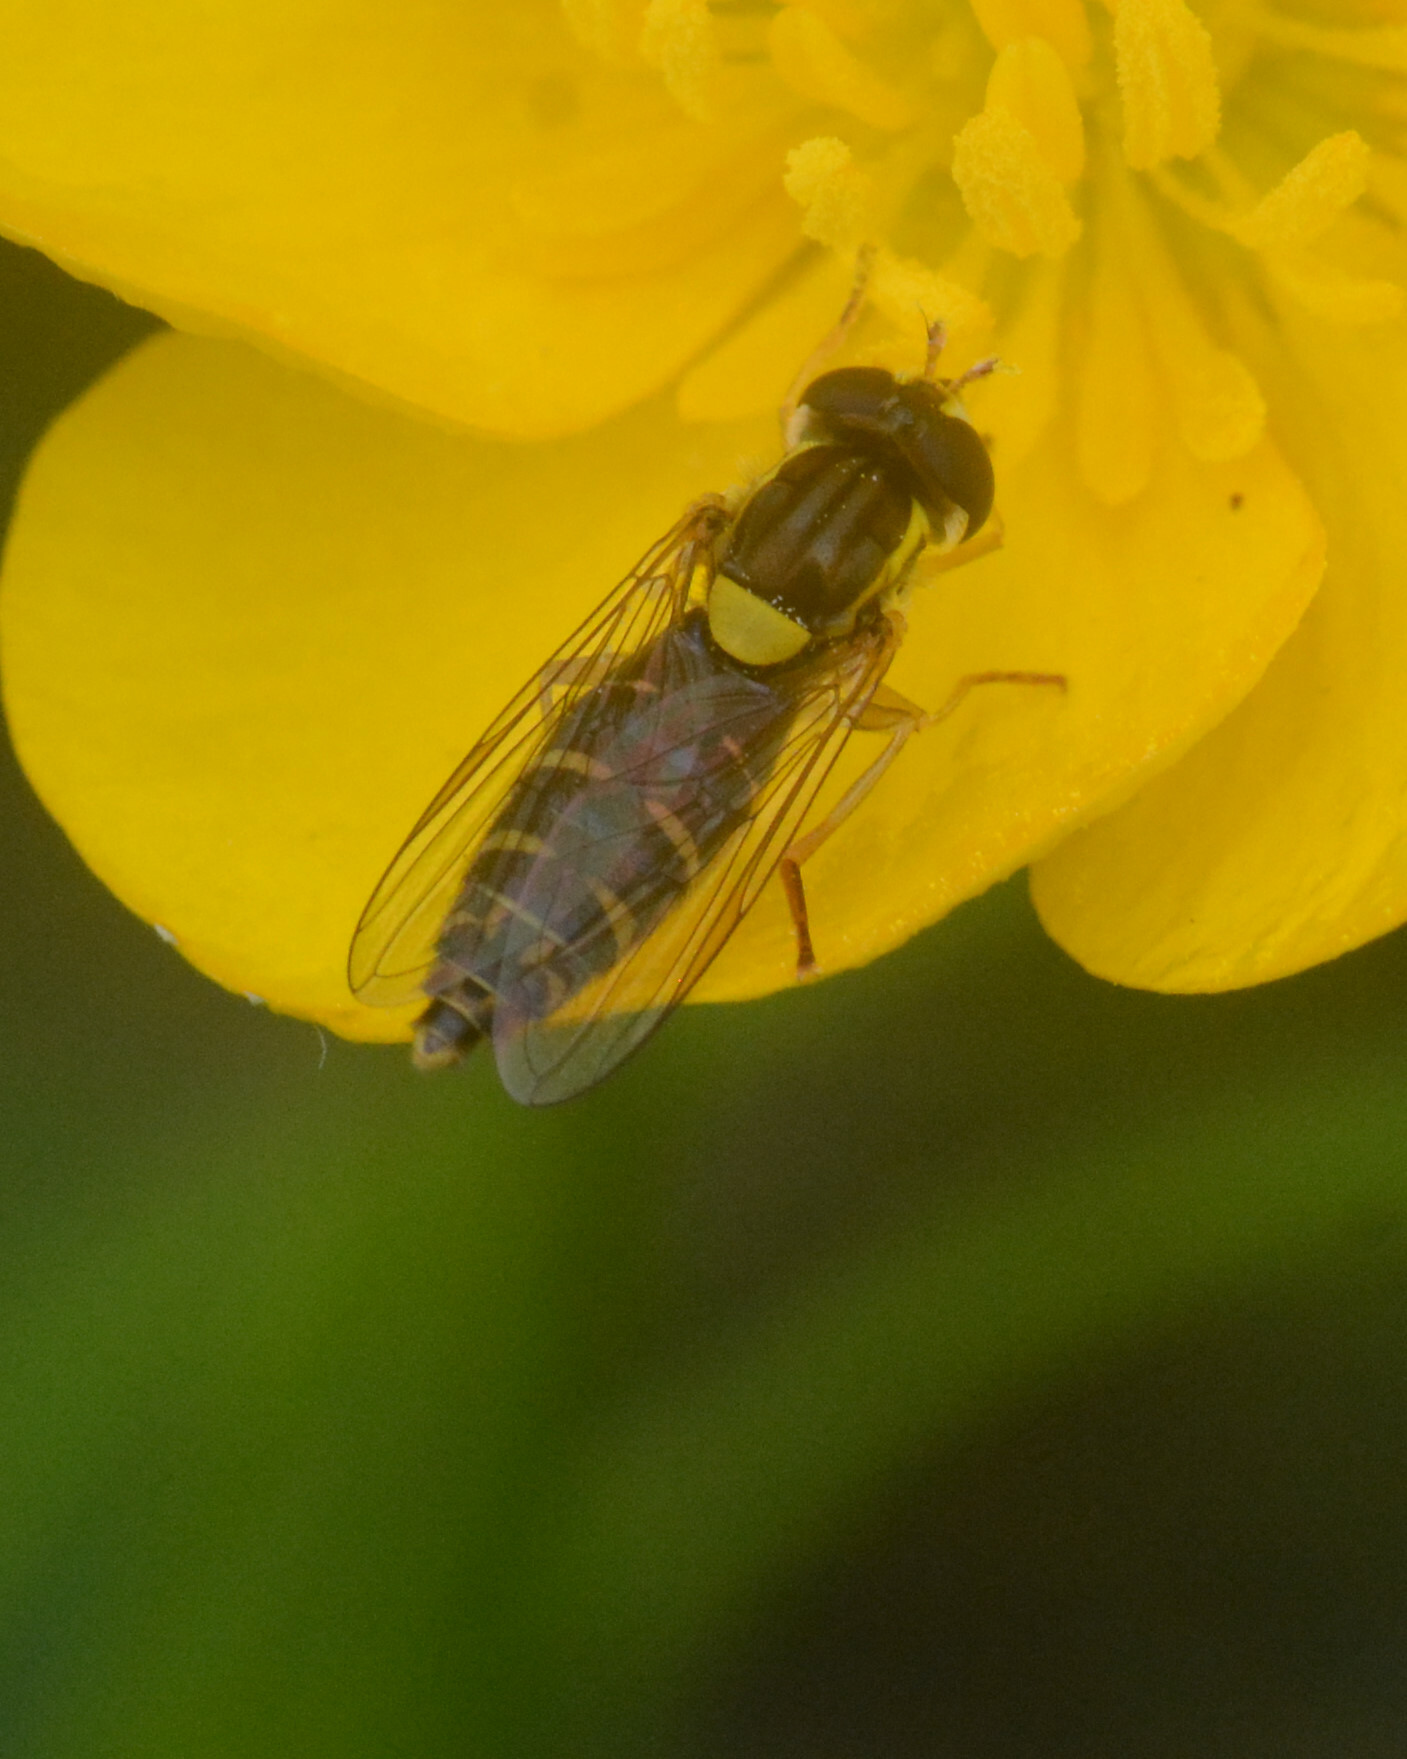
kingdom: Animalia
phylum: Arthropoda
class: Insecta
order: Diptera
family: Syrphidae
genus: Sphaerophoria
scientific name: Sphaerophoria
